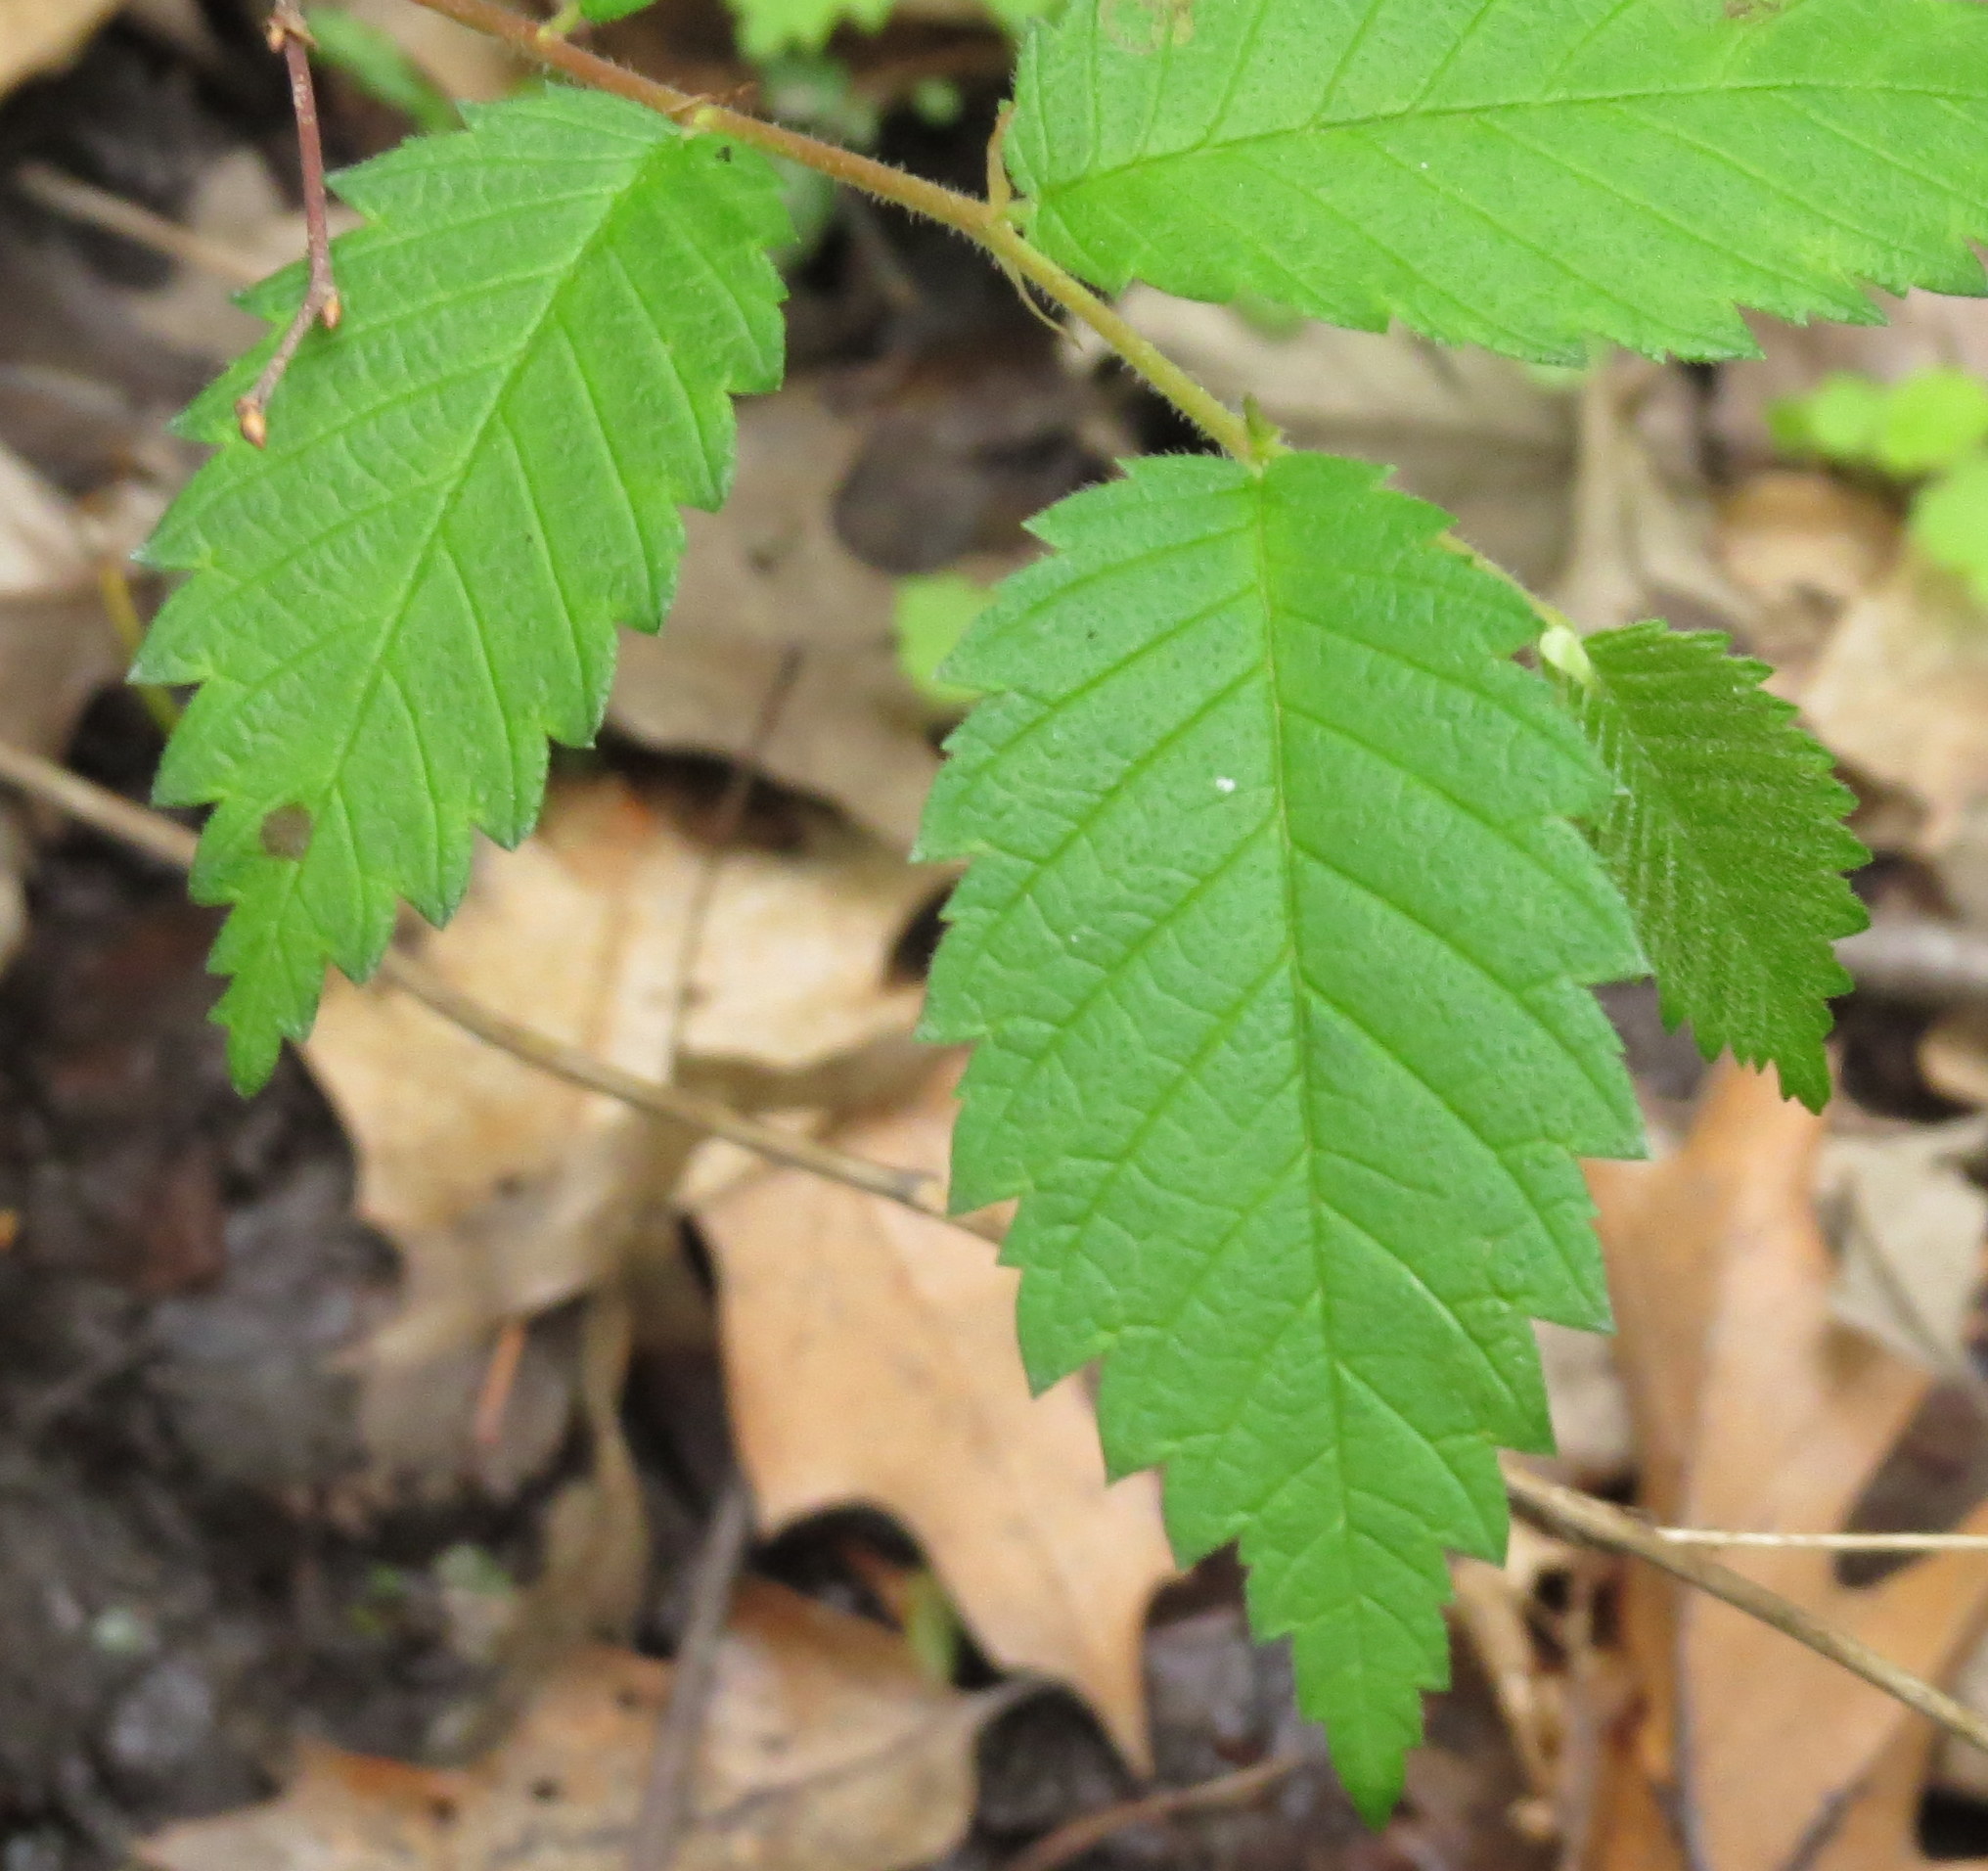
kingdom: Plantae
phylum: Tracheophyta
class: Magnoliopsida
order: Rosales
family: Ulmaceae
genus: Ulmus
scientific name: Ulmus americana
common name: American elm
